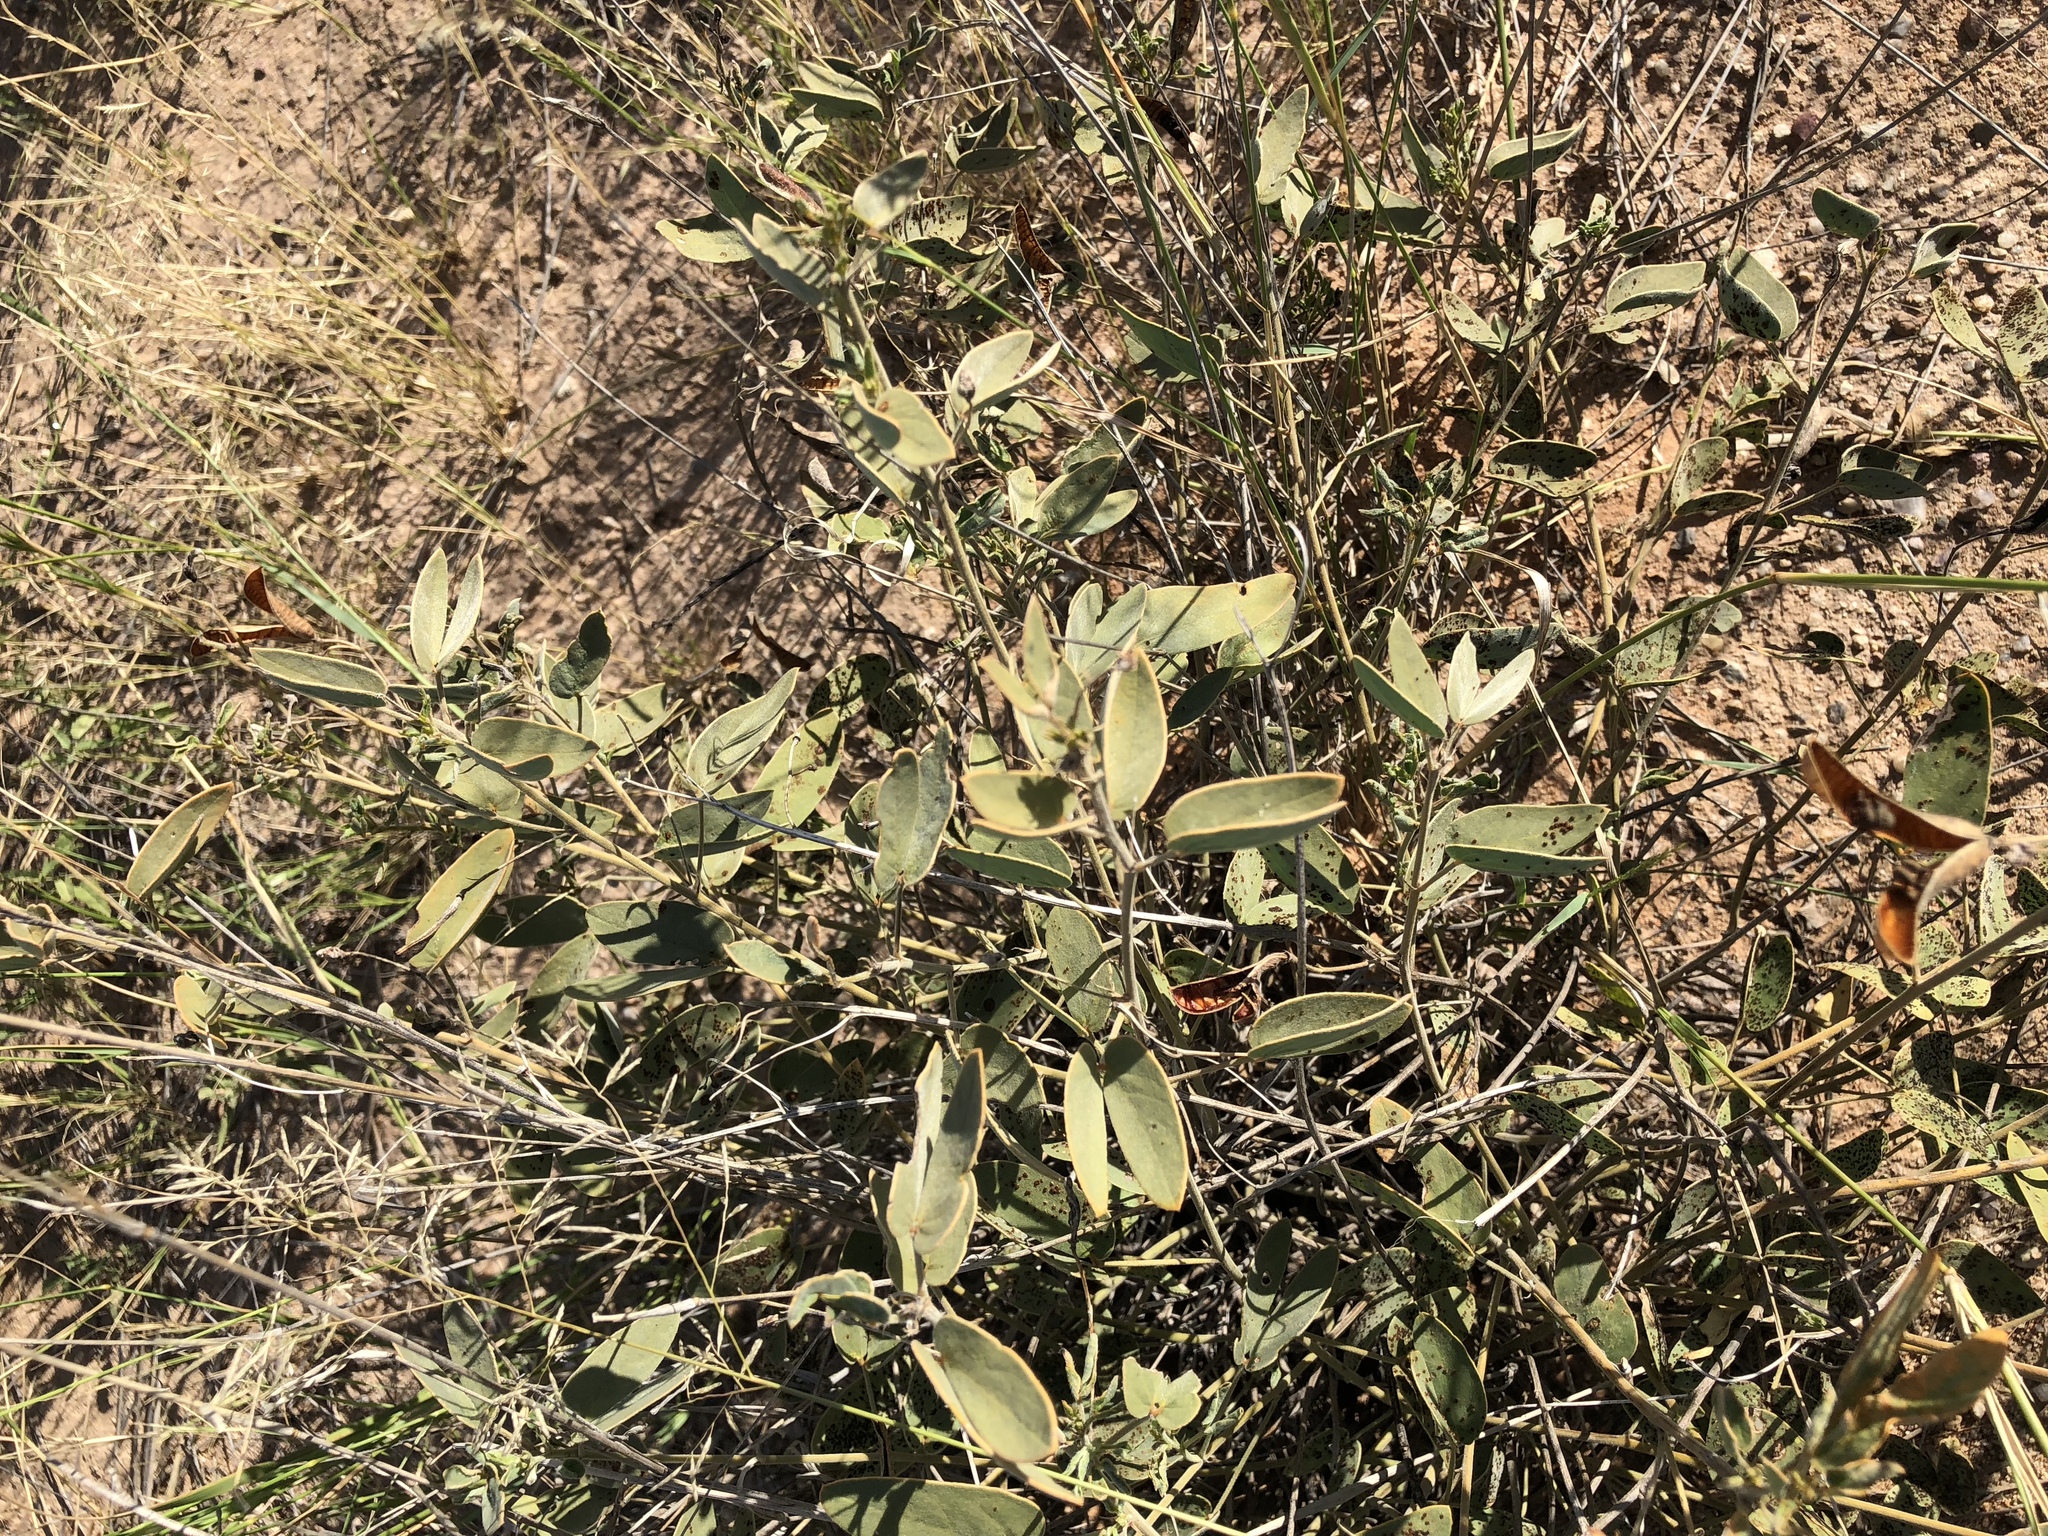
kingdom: Plantae
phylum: Tracheophyta
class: Magnoliopsida
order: Fabales
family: Fabaceae
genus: Senna
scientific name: Senna bauhinioides
